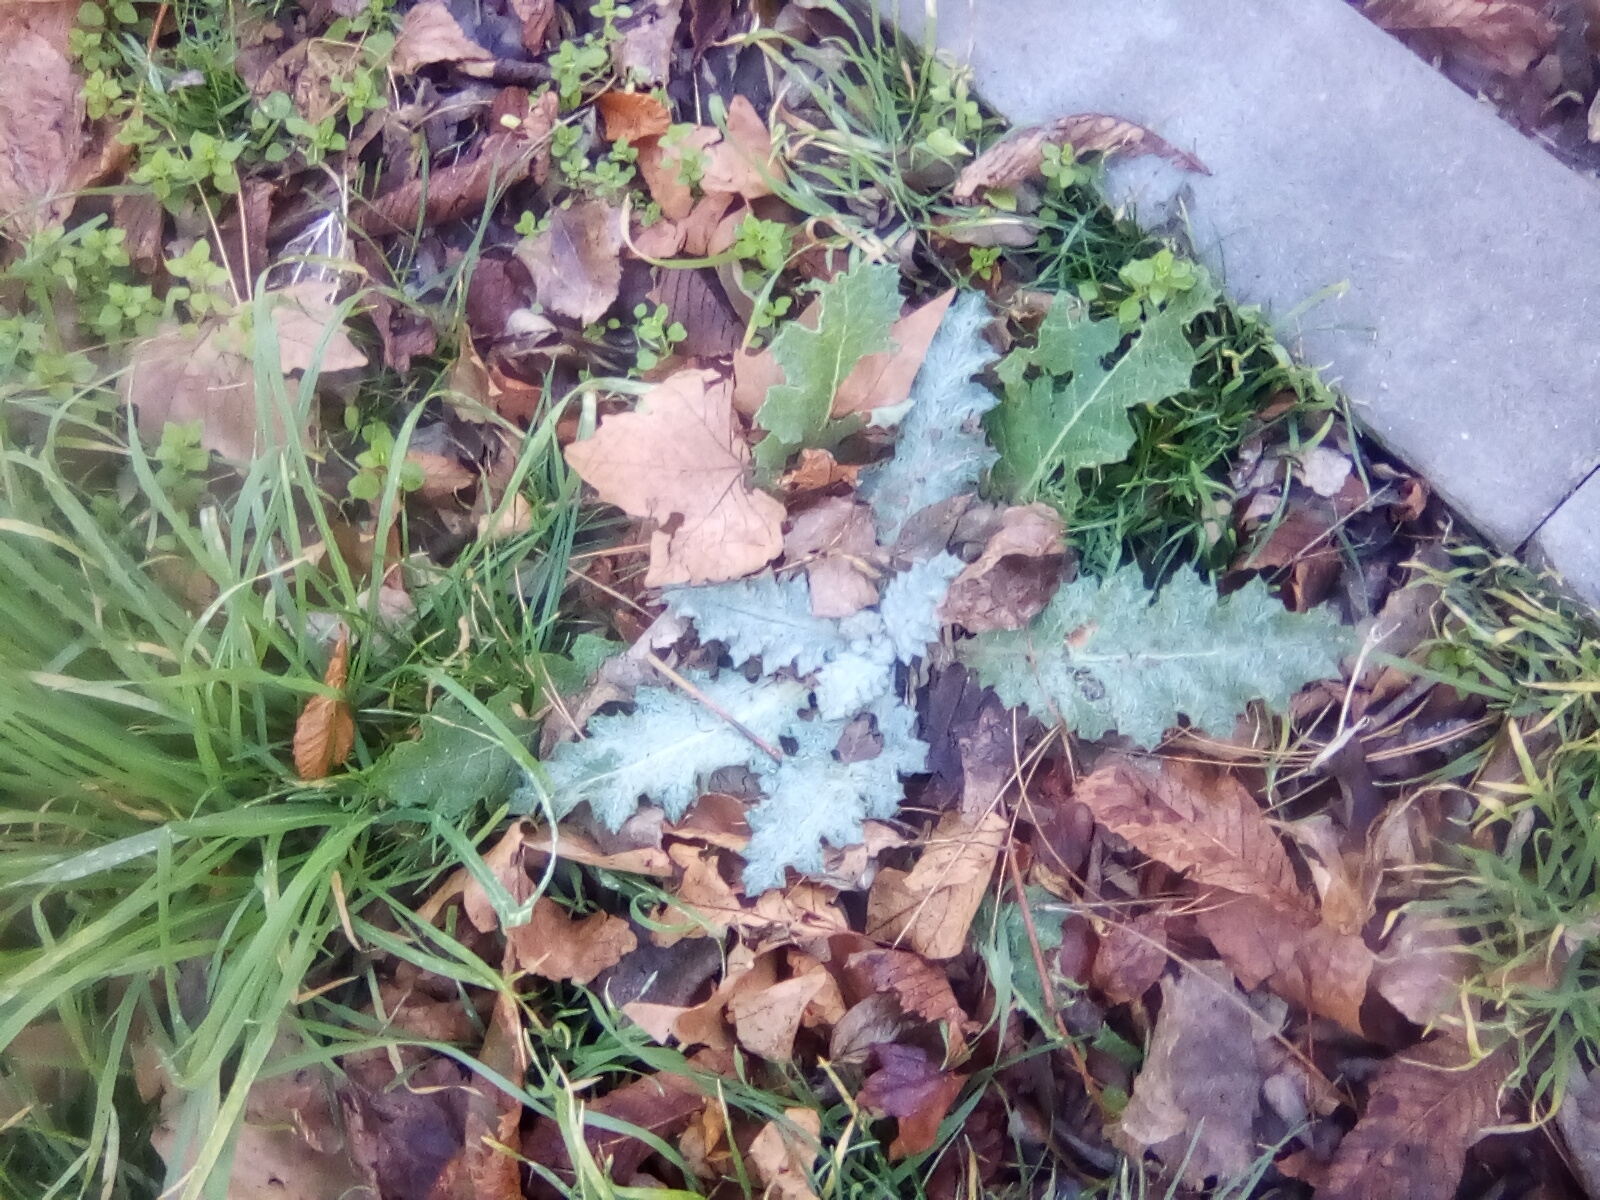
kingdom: Plantae
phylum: Tracheophyta
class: Magnoliopsida
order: Asterales
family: Asteraceae
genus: Onopordum
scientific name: Onopordum acanthium
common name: Scotch thistle
